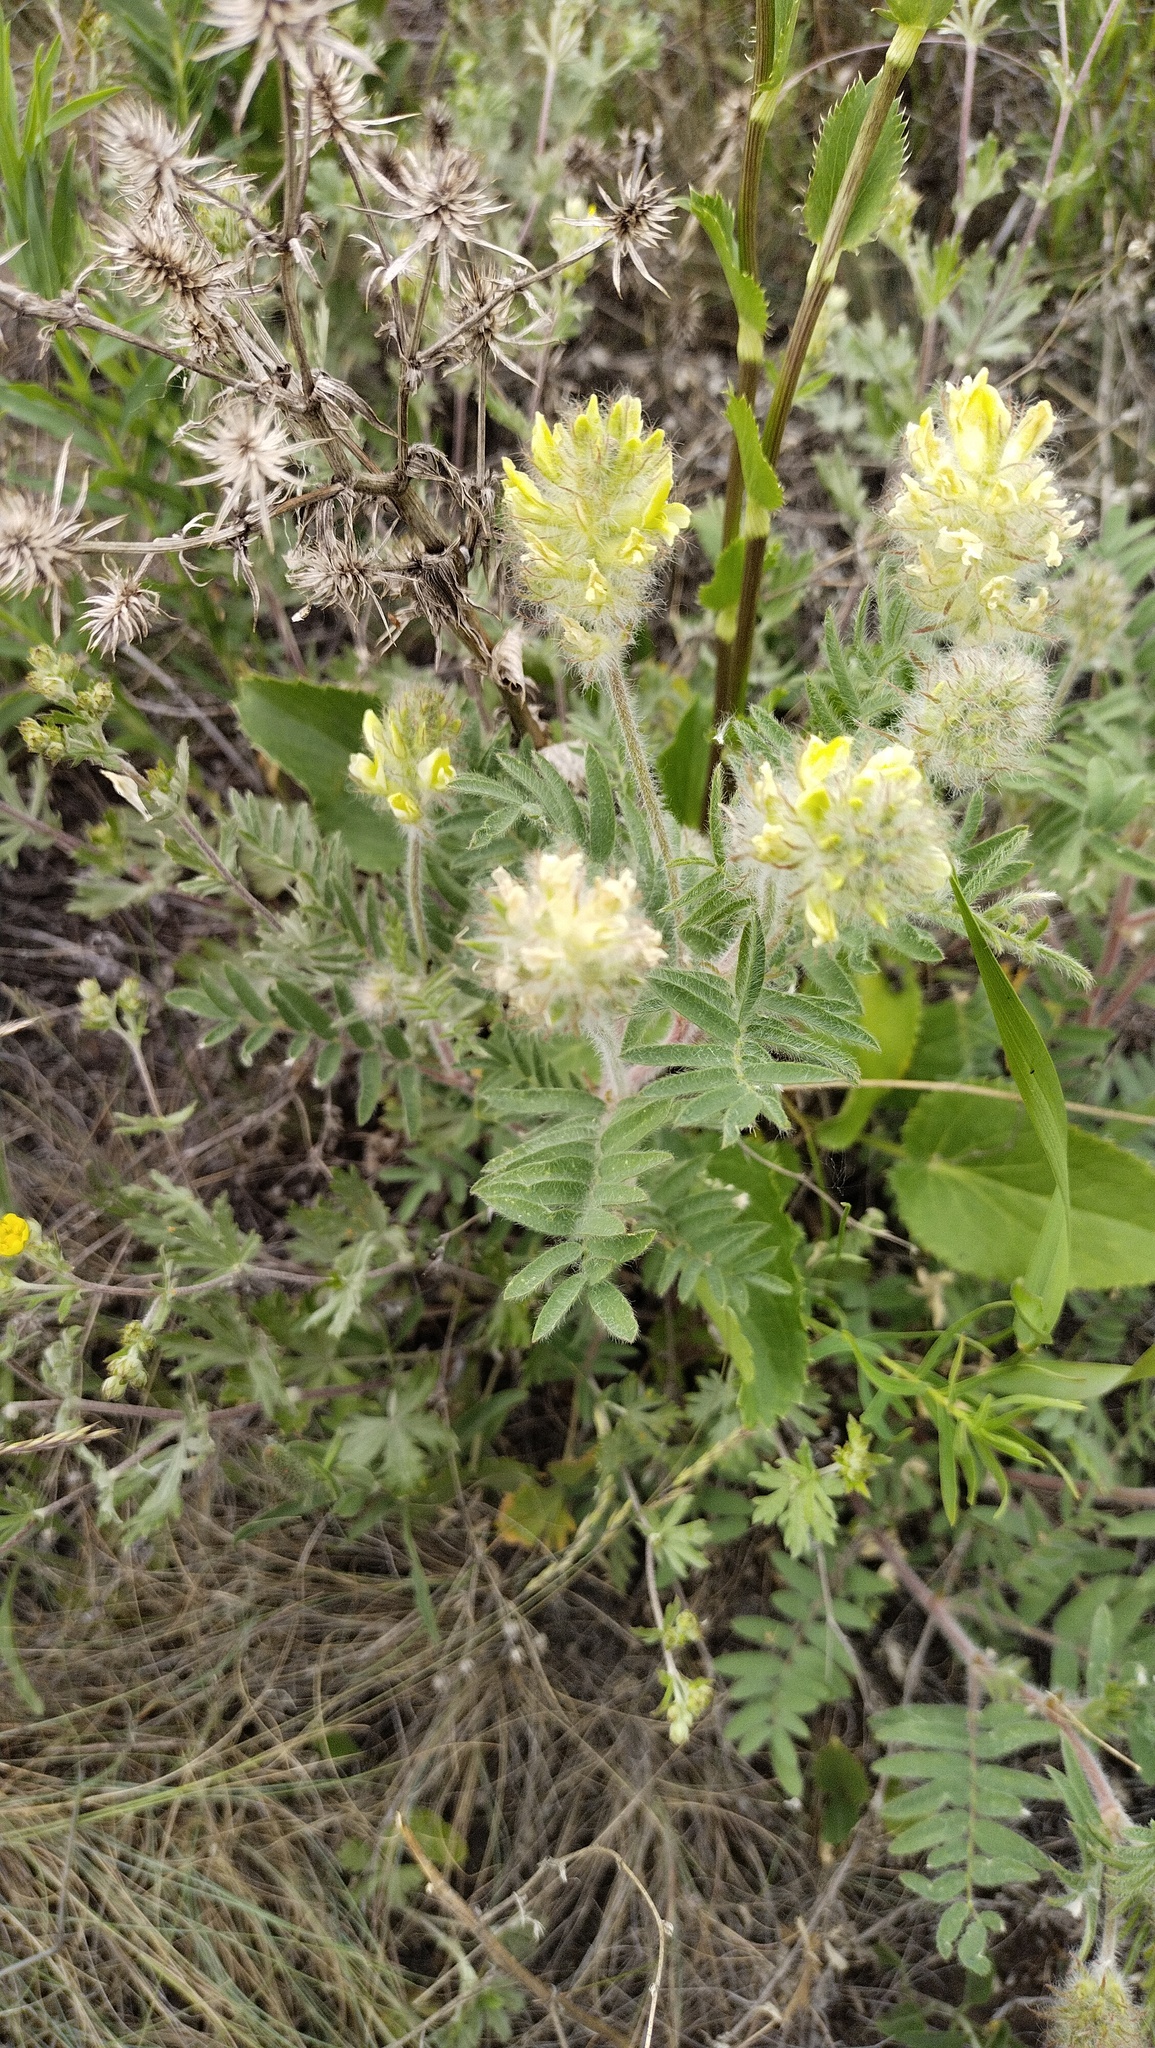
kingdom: Plantae
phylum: Tracheophyta
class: Magnoliopsida
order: Fabales
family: Fabaceae
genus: Oxytropis
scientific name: Oxytropis pilosa
